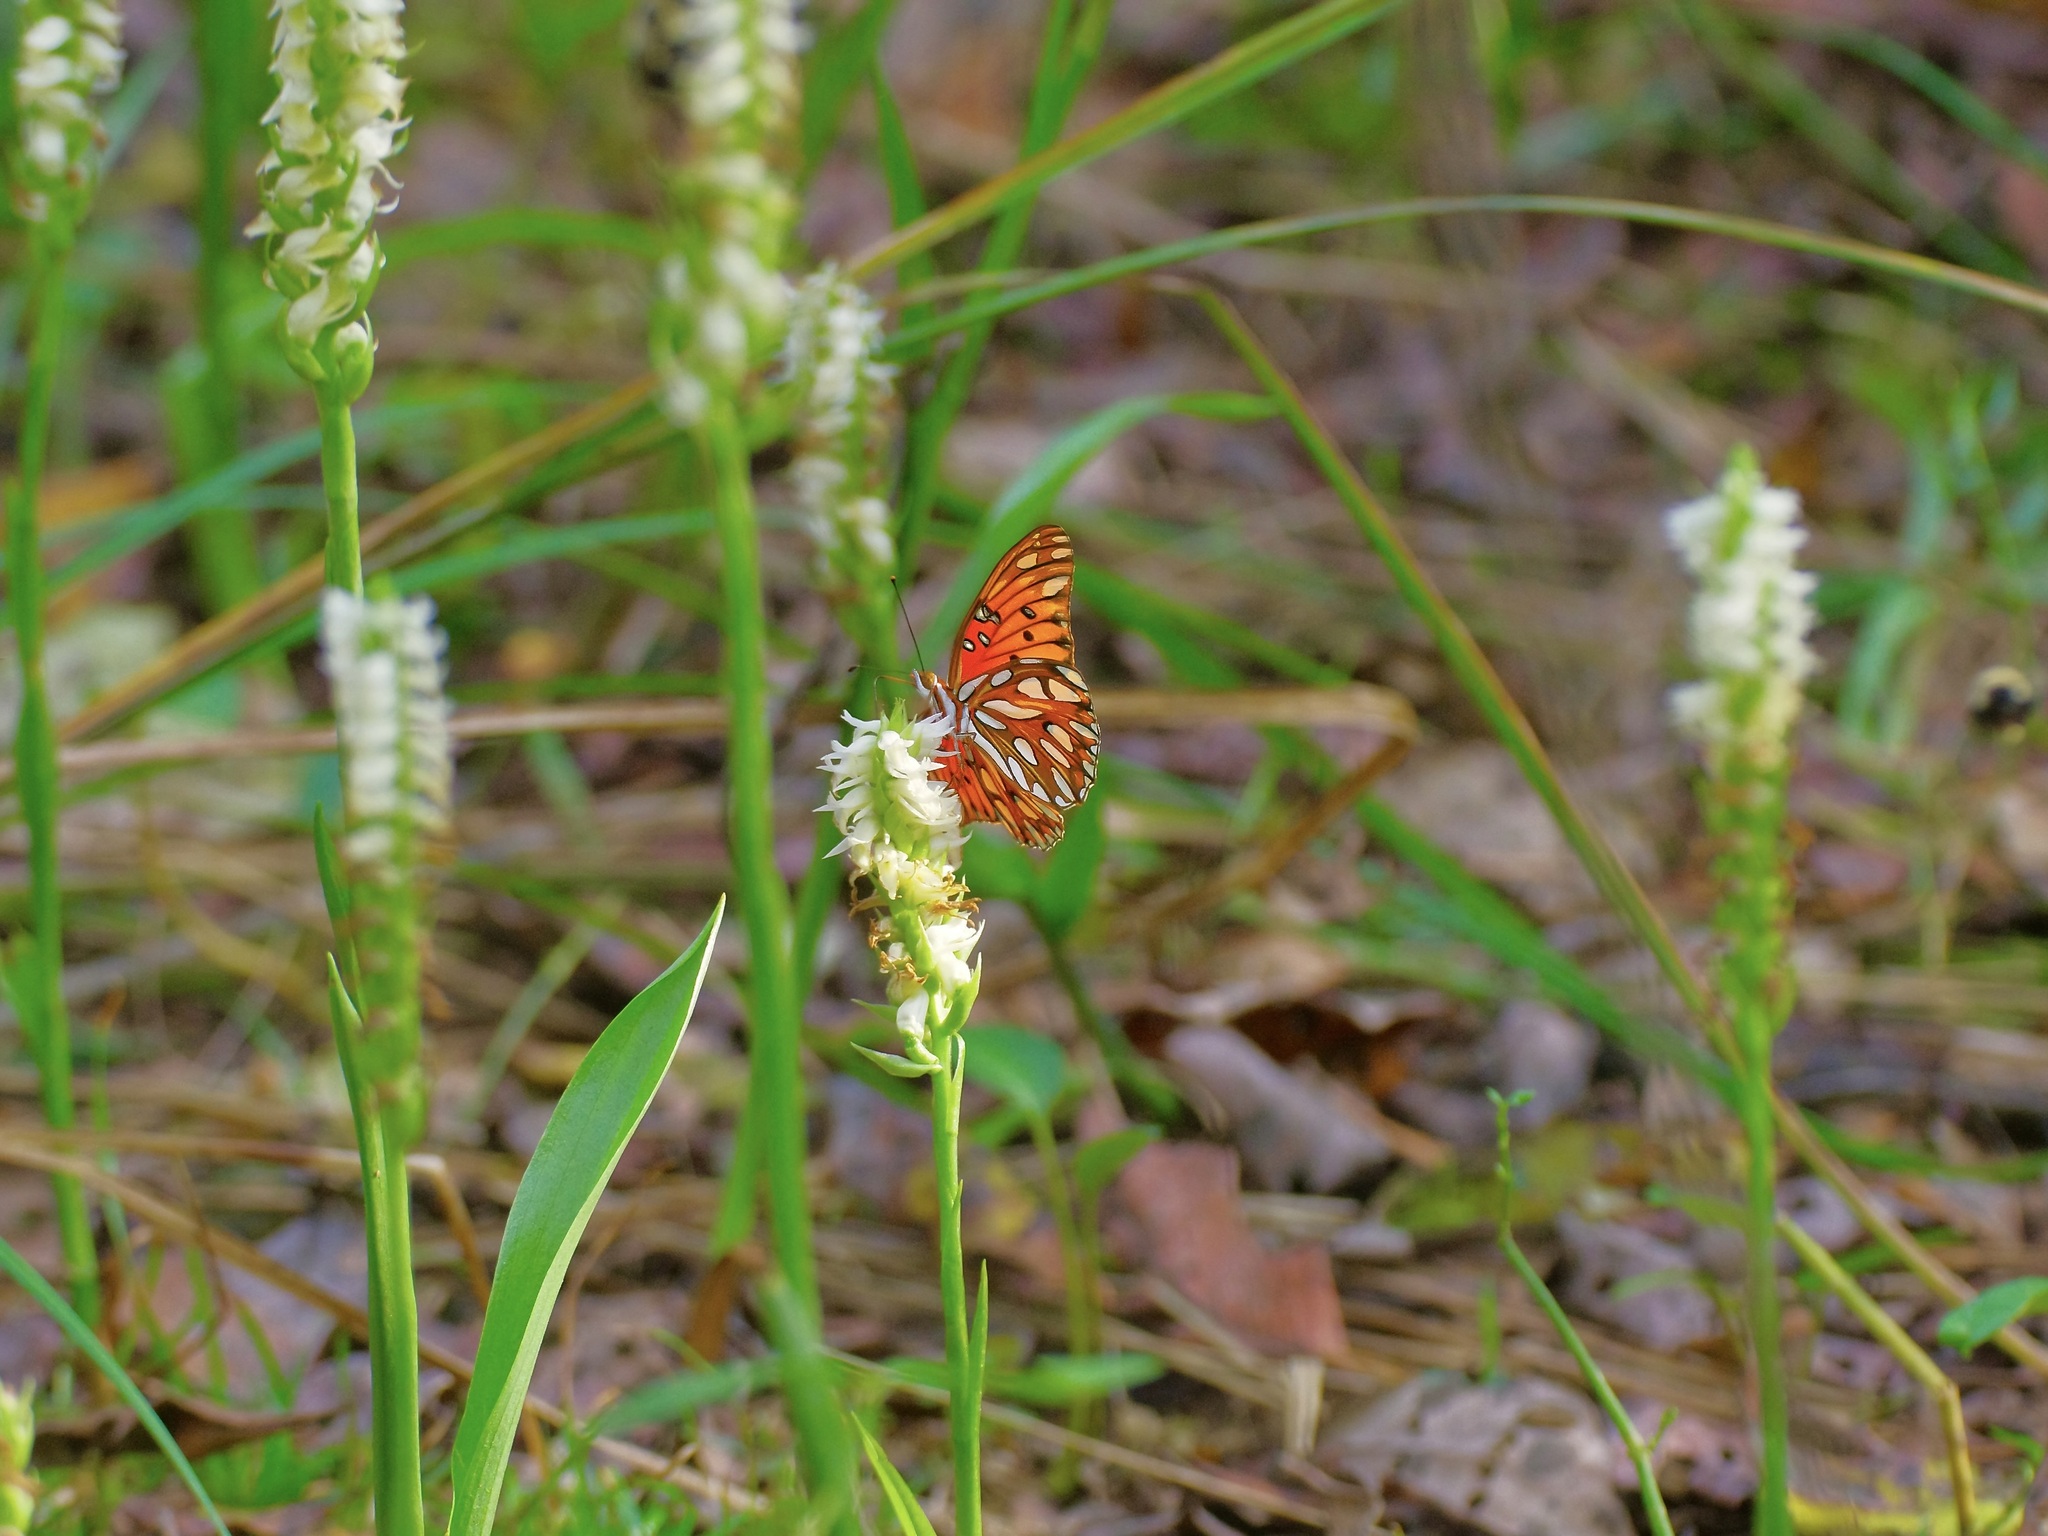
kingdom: Animalia
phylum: Arthropoda
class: Insecta
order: Lepidoptera
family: Nymphalidae
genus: Dione
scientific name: Dione vanillae
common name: Gulf fritillary
